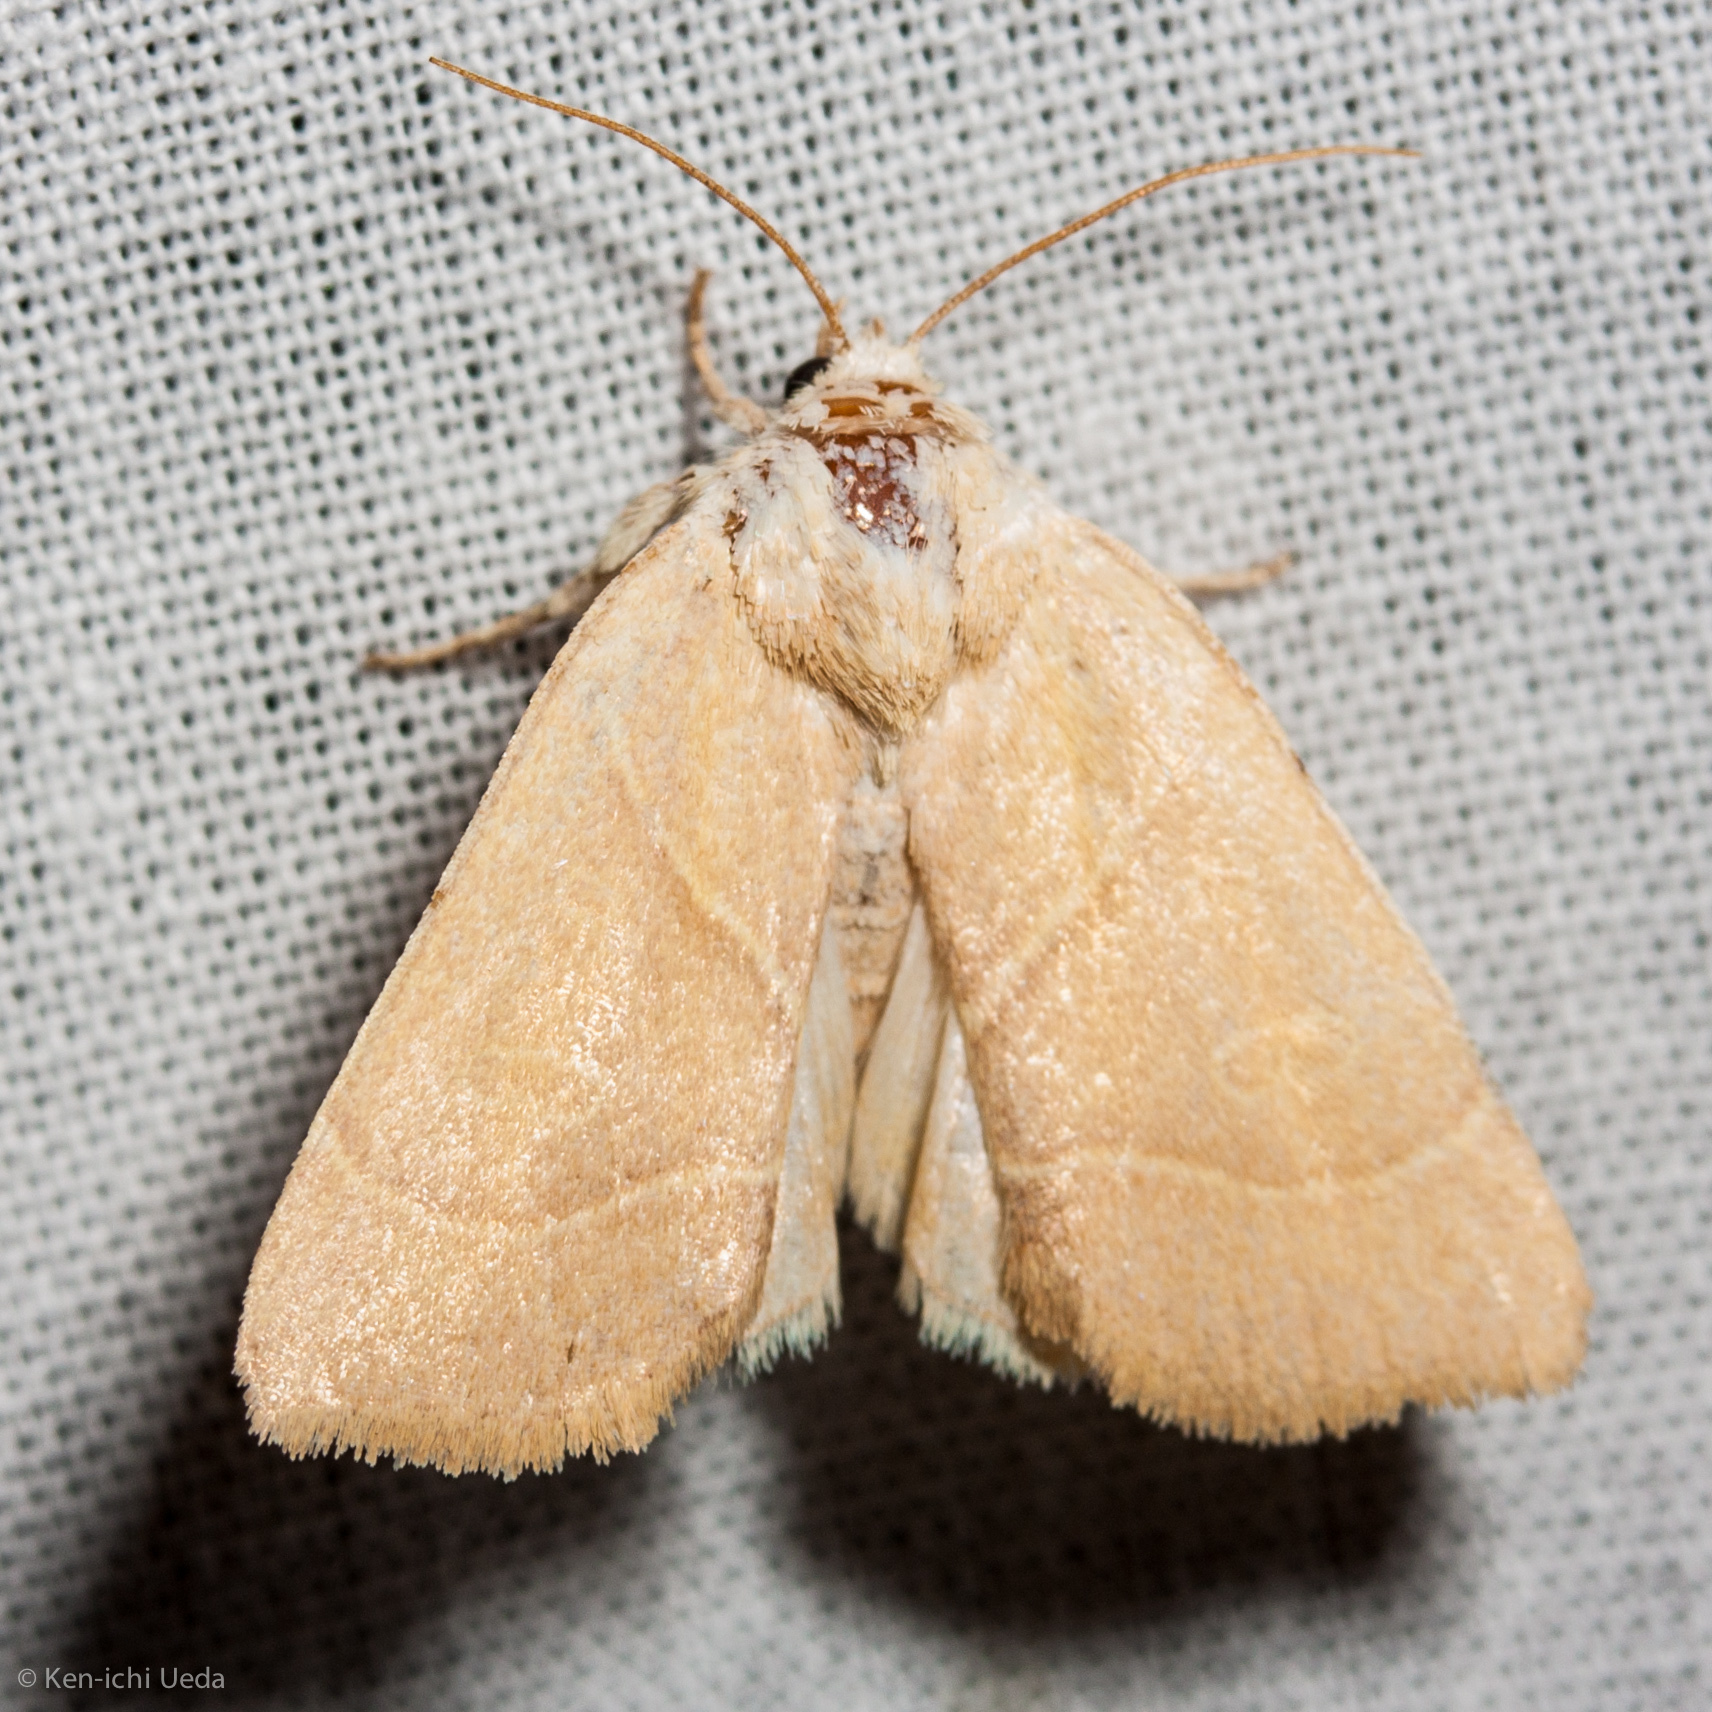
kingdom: Animalia
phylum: Arthropoda
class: Insecta
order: Lepidoptera
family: Noctuidae
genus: Cosmia
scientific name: Cosmia calami
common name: American dun-bar moth
